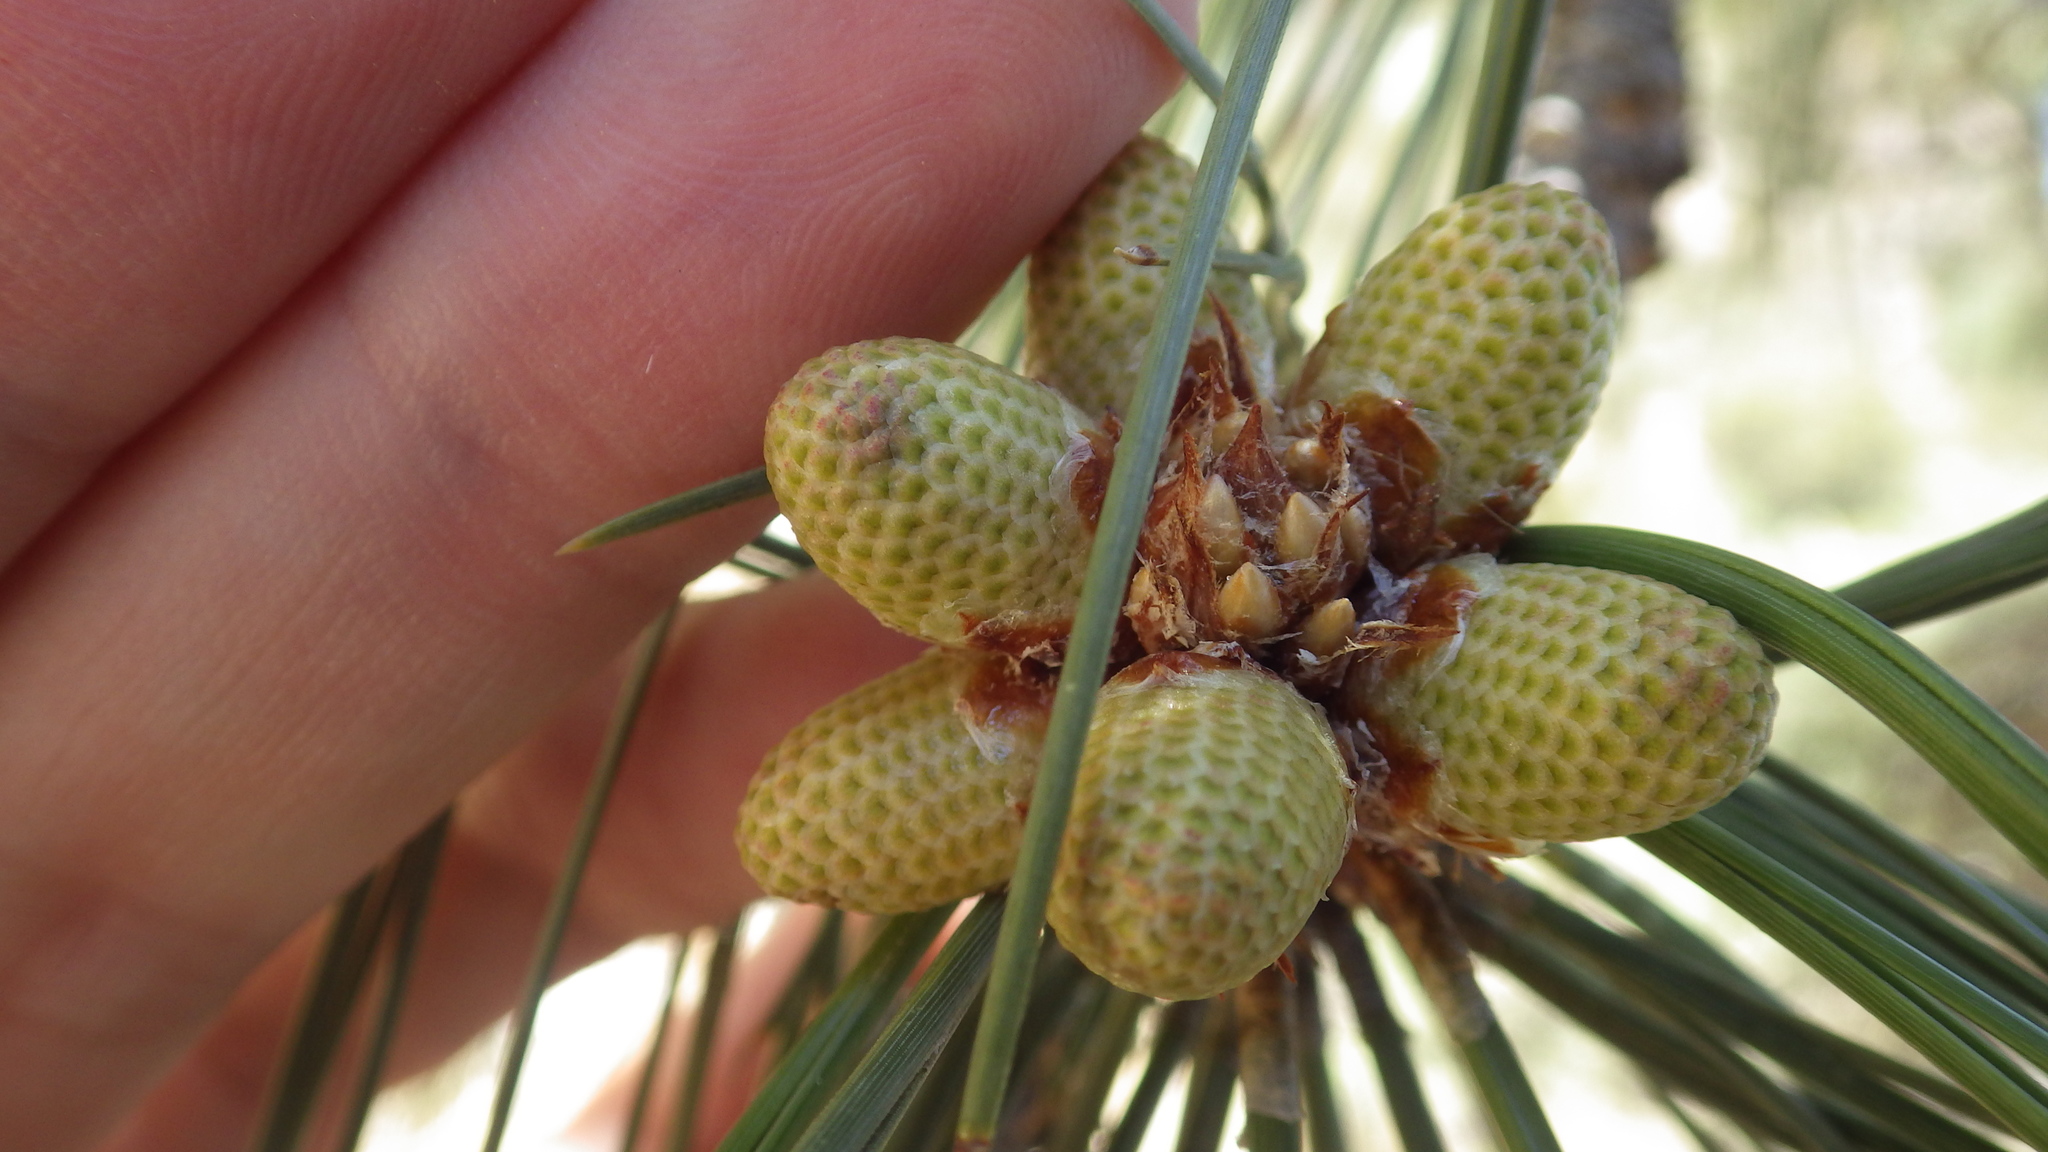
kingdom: Plantae
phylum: Tracheophyta
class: Pinopsida
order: Pinales
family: Pinaceae
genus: Pinus
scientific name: Pinus ponderosa
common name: Western yellow-pine
